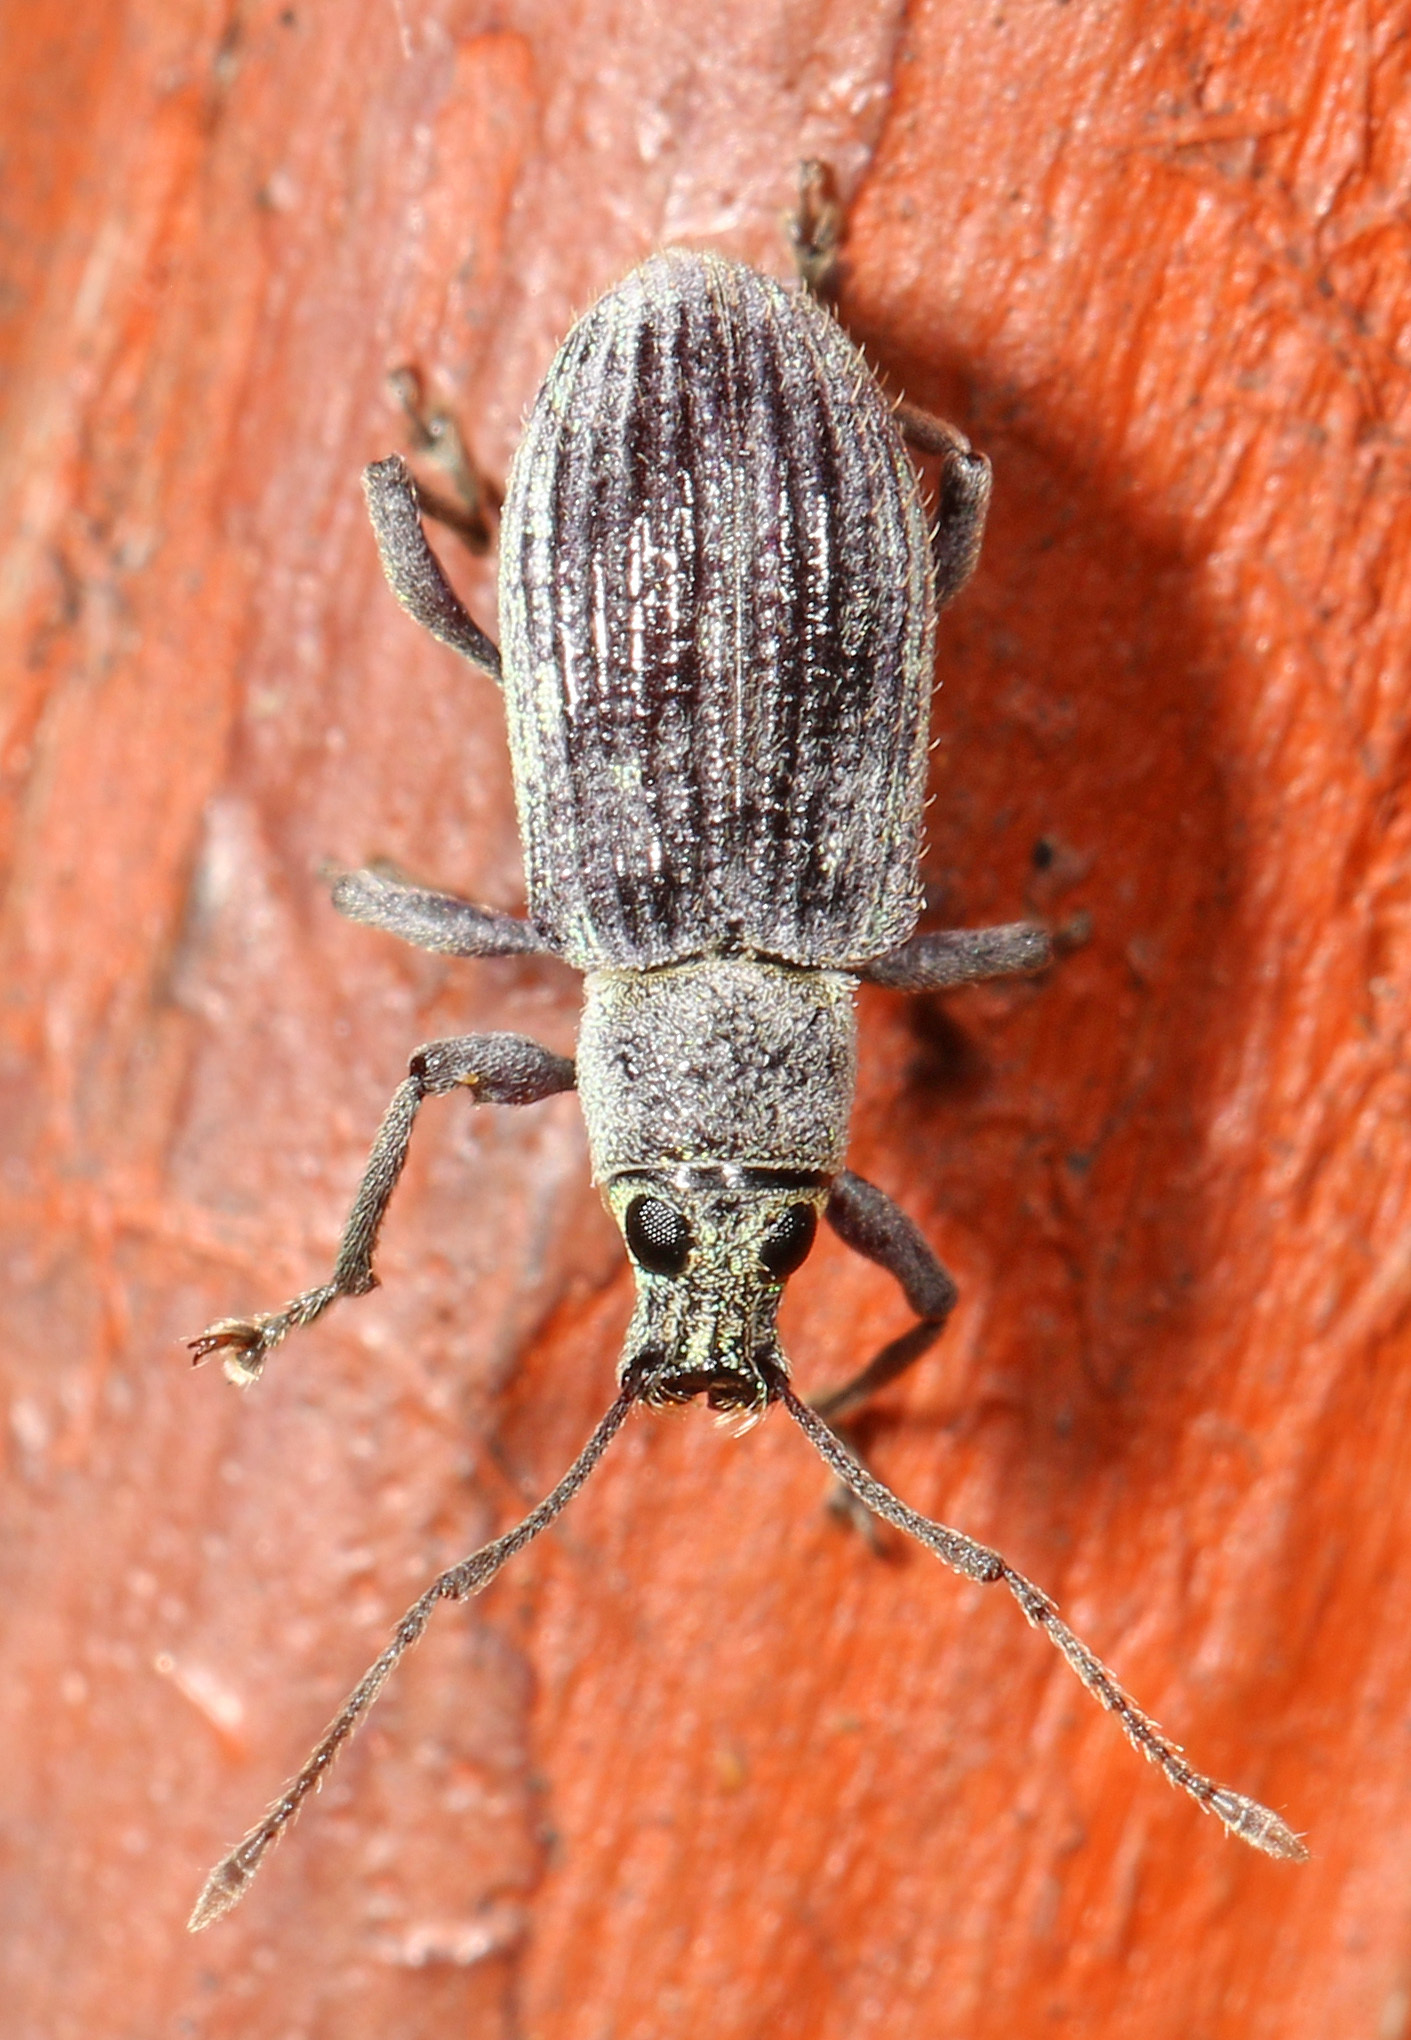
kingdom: Animalia
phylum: Arthropoda
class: Insecta
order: Coleoptera
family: Curculionidae
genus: Cyrtepistomus
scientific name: Cyrtepistomus castaneus
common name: Weevil
